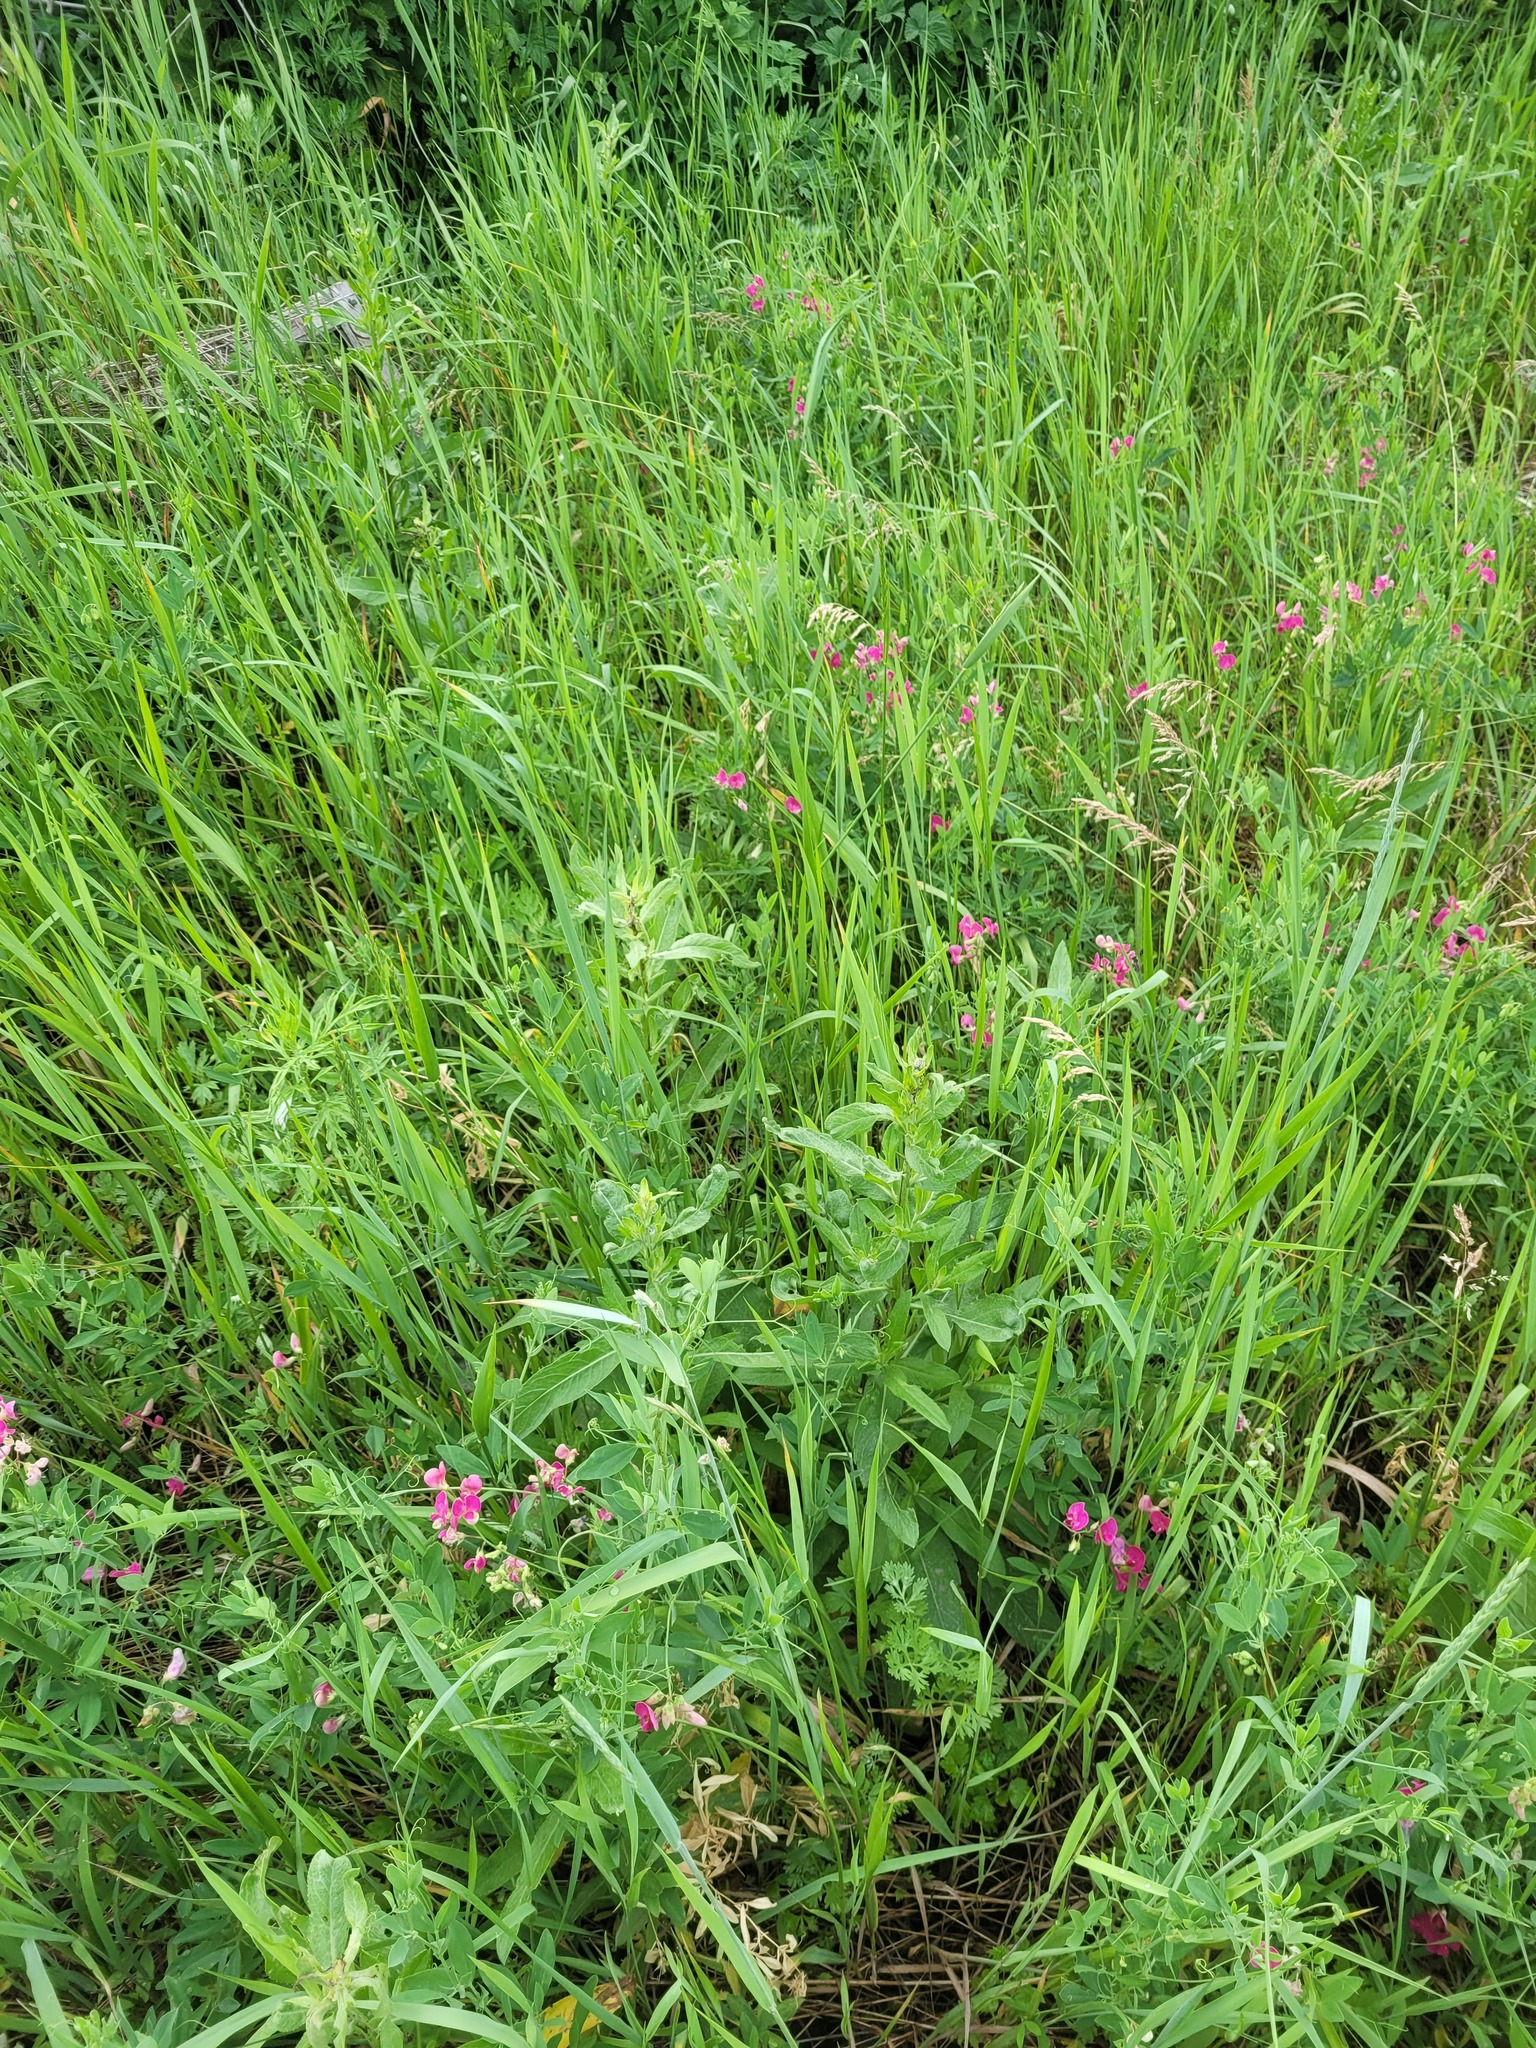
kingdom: Plantae
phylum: Tracheophyta
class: Magnoliopsida
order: Fabales
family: Fabaceae
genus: Lathyrus
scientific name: Lathyrus tuberosus
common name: Tuberous pea
